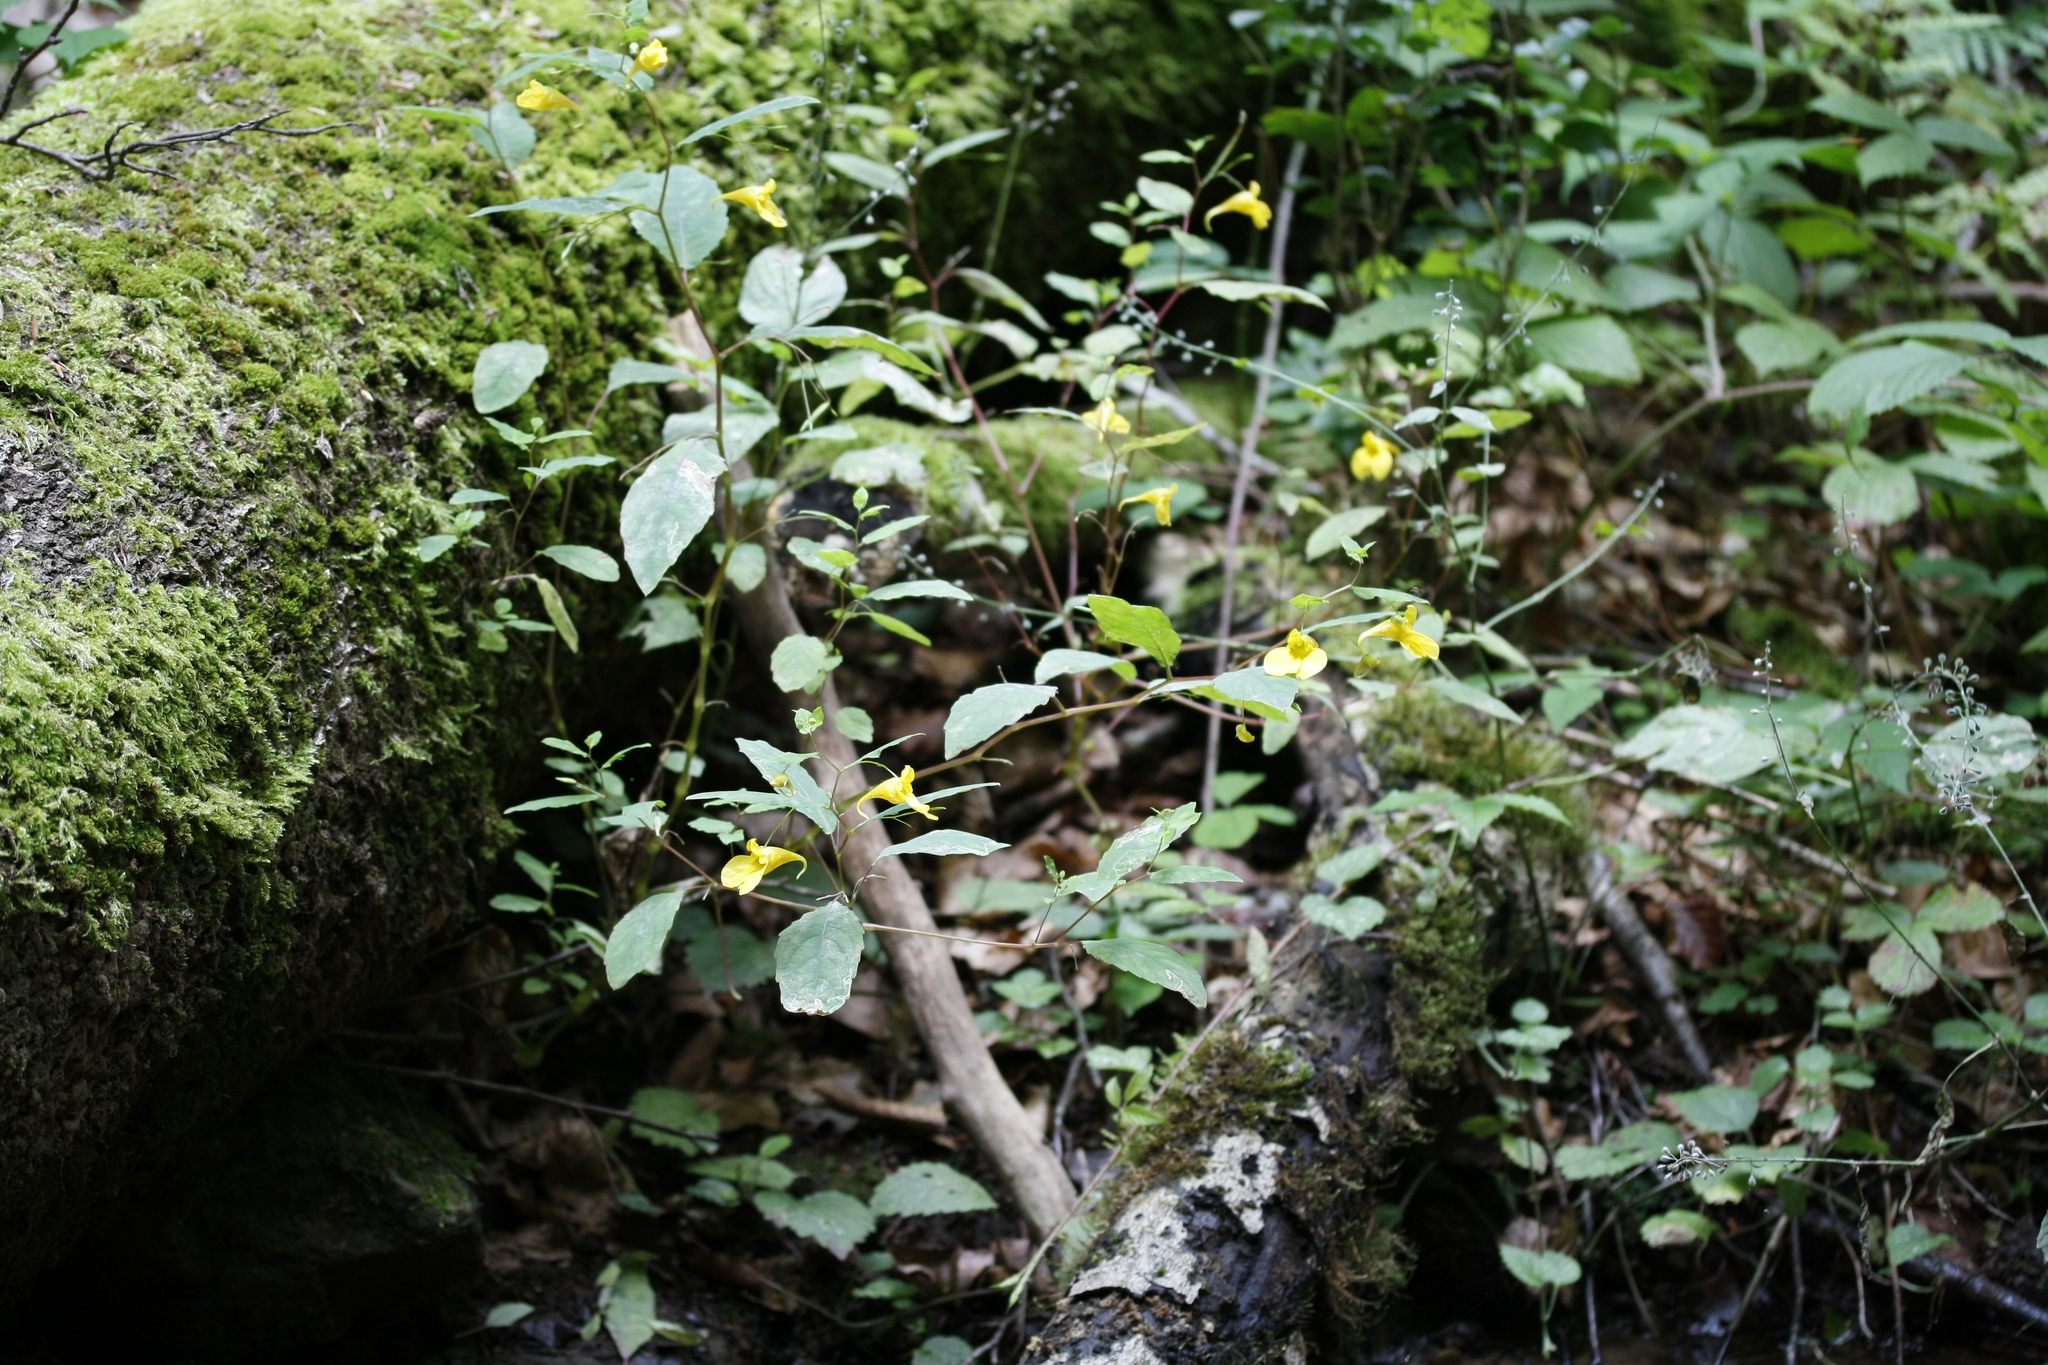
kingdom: Plantae
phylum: Tracheophyta
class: Magnoliopsida
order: Ericales
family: Balsaminaceae
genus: Impatiens
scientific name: Impatiens noli-tangere
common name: Touch-me-not balsam
